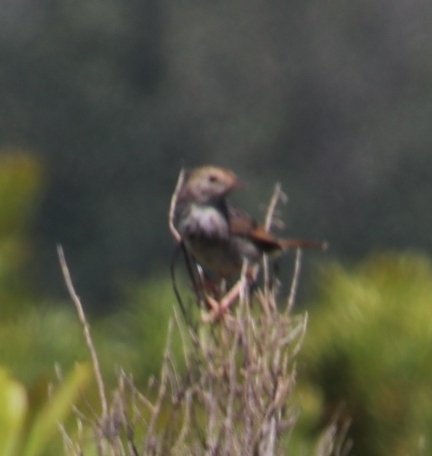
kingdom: Animalia
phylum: Chordata
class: Aves
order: Passeriformes
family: Cisticolidae
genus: Cisticola
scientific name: Cisticola subruficapilla
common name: Grey-backed cisticola
